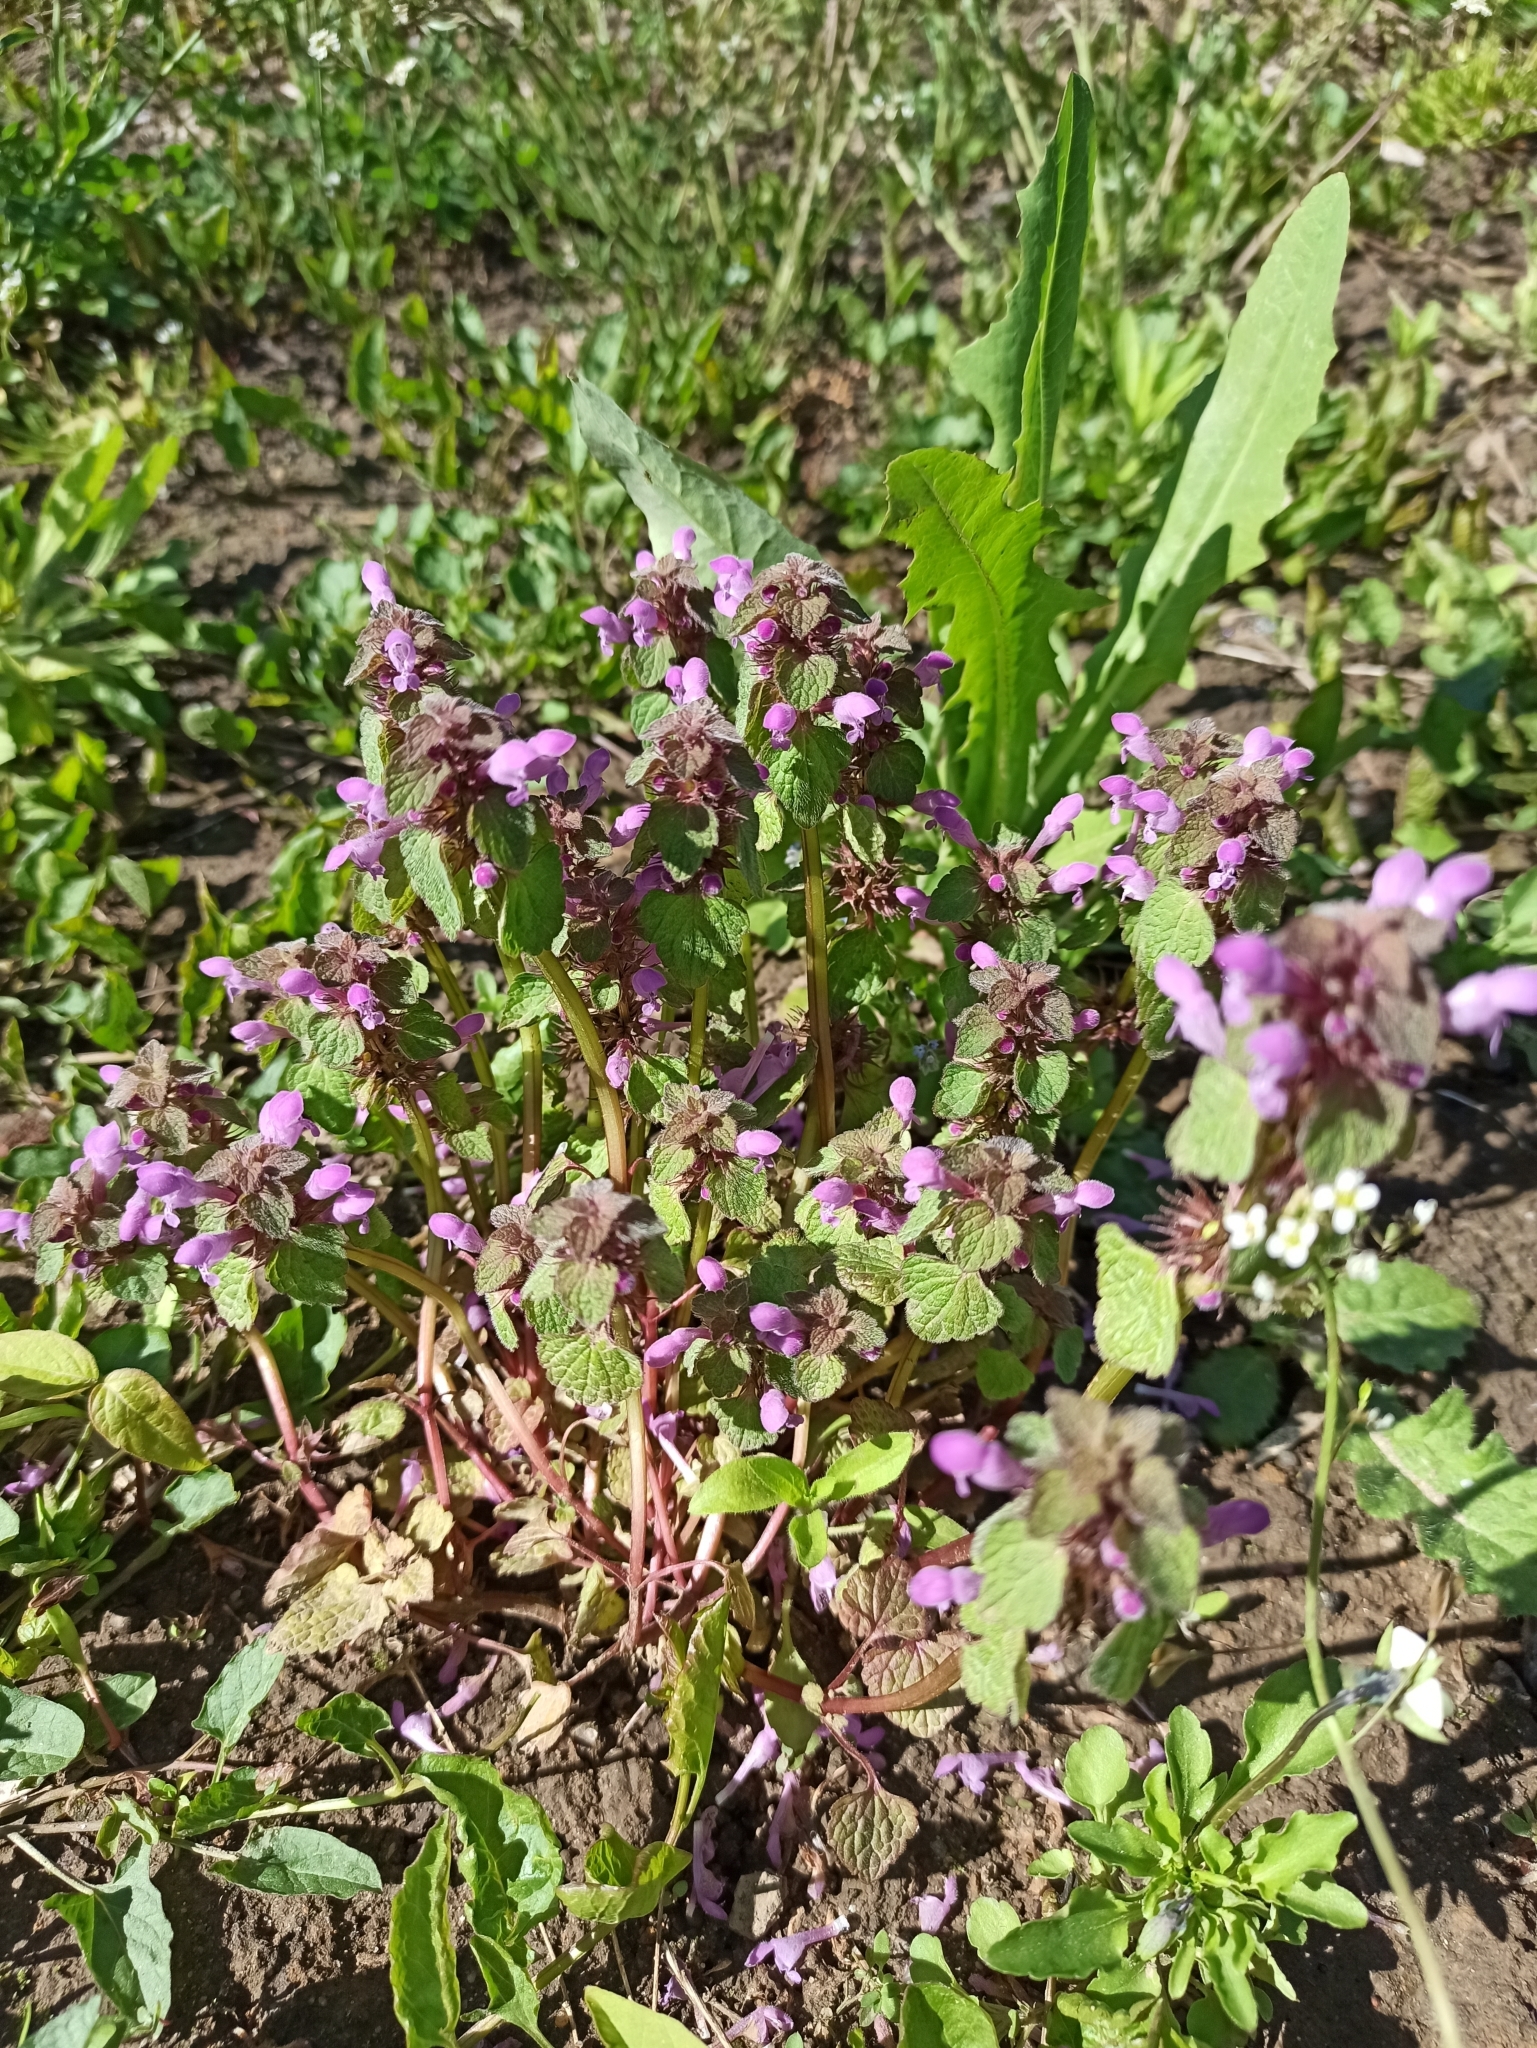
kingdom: Plantae
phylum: Tracheophyta
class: Magnoliopsida
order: Lamiales
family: Lamiaceae
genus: Lamium
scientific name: Lamium purpureum
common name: Red dead-nettle
